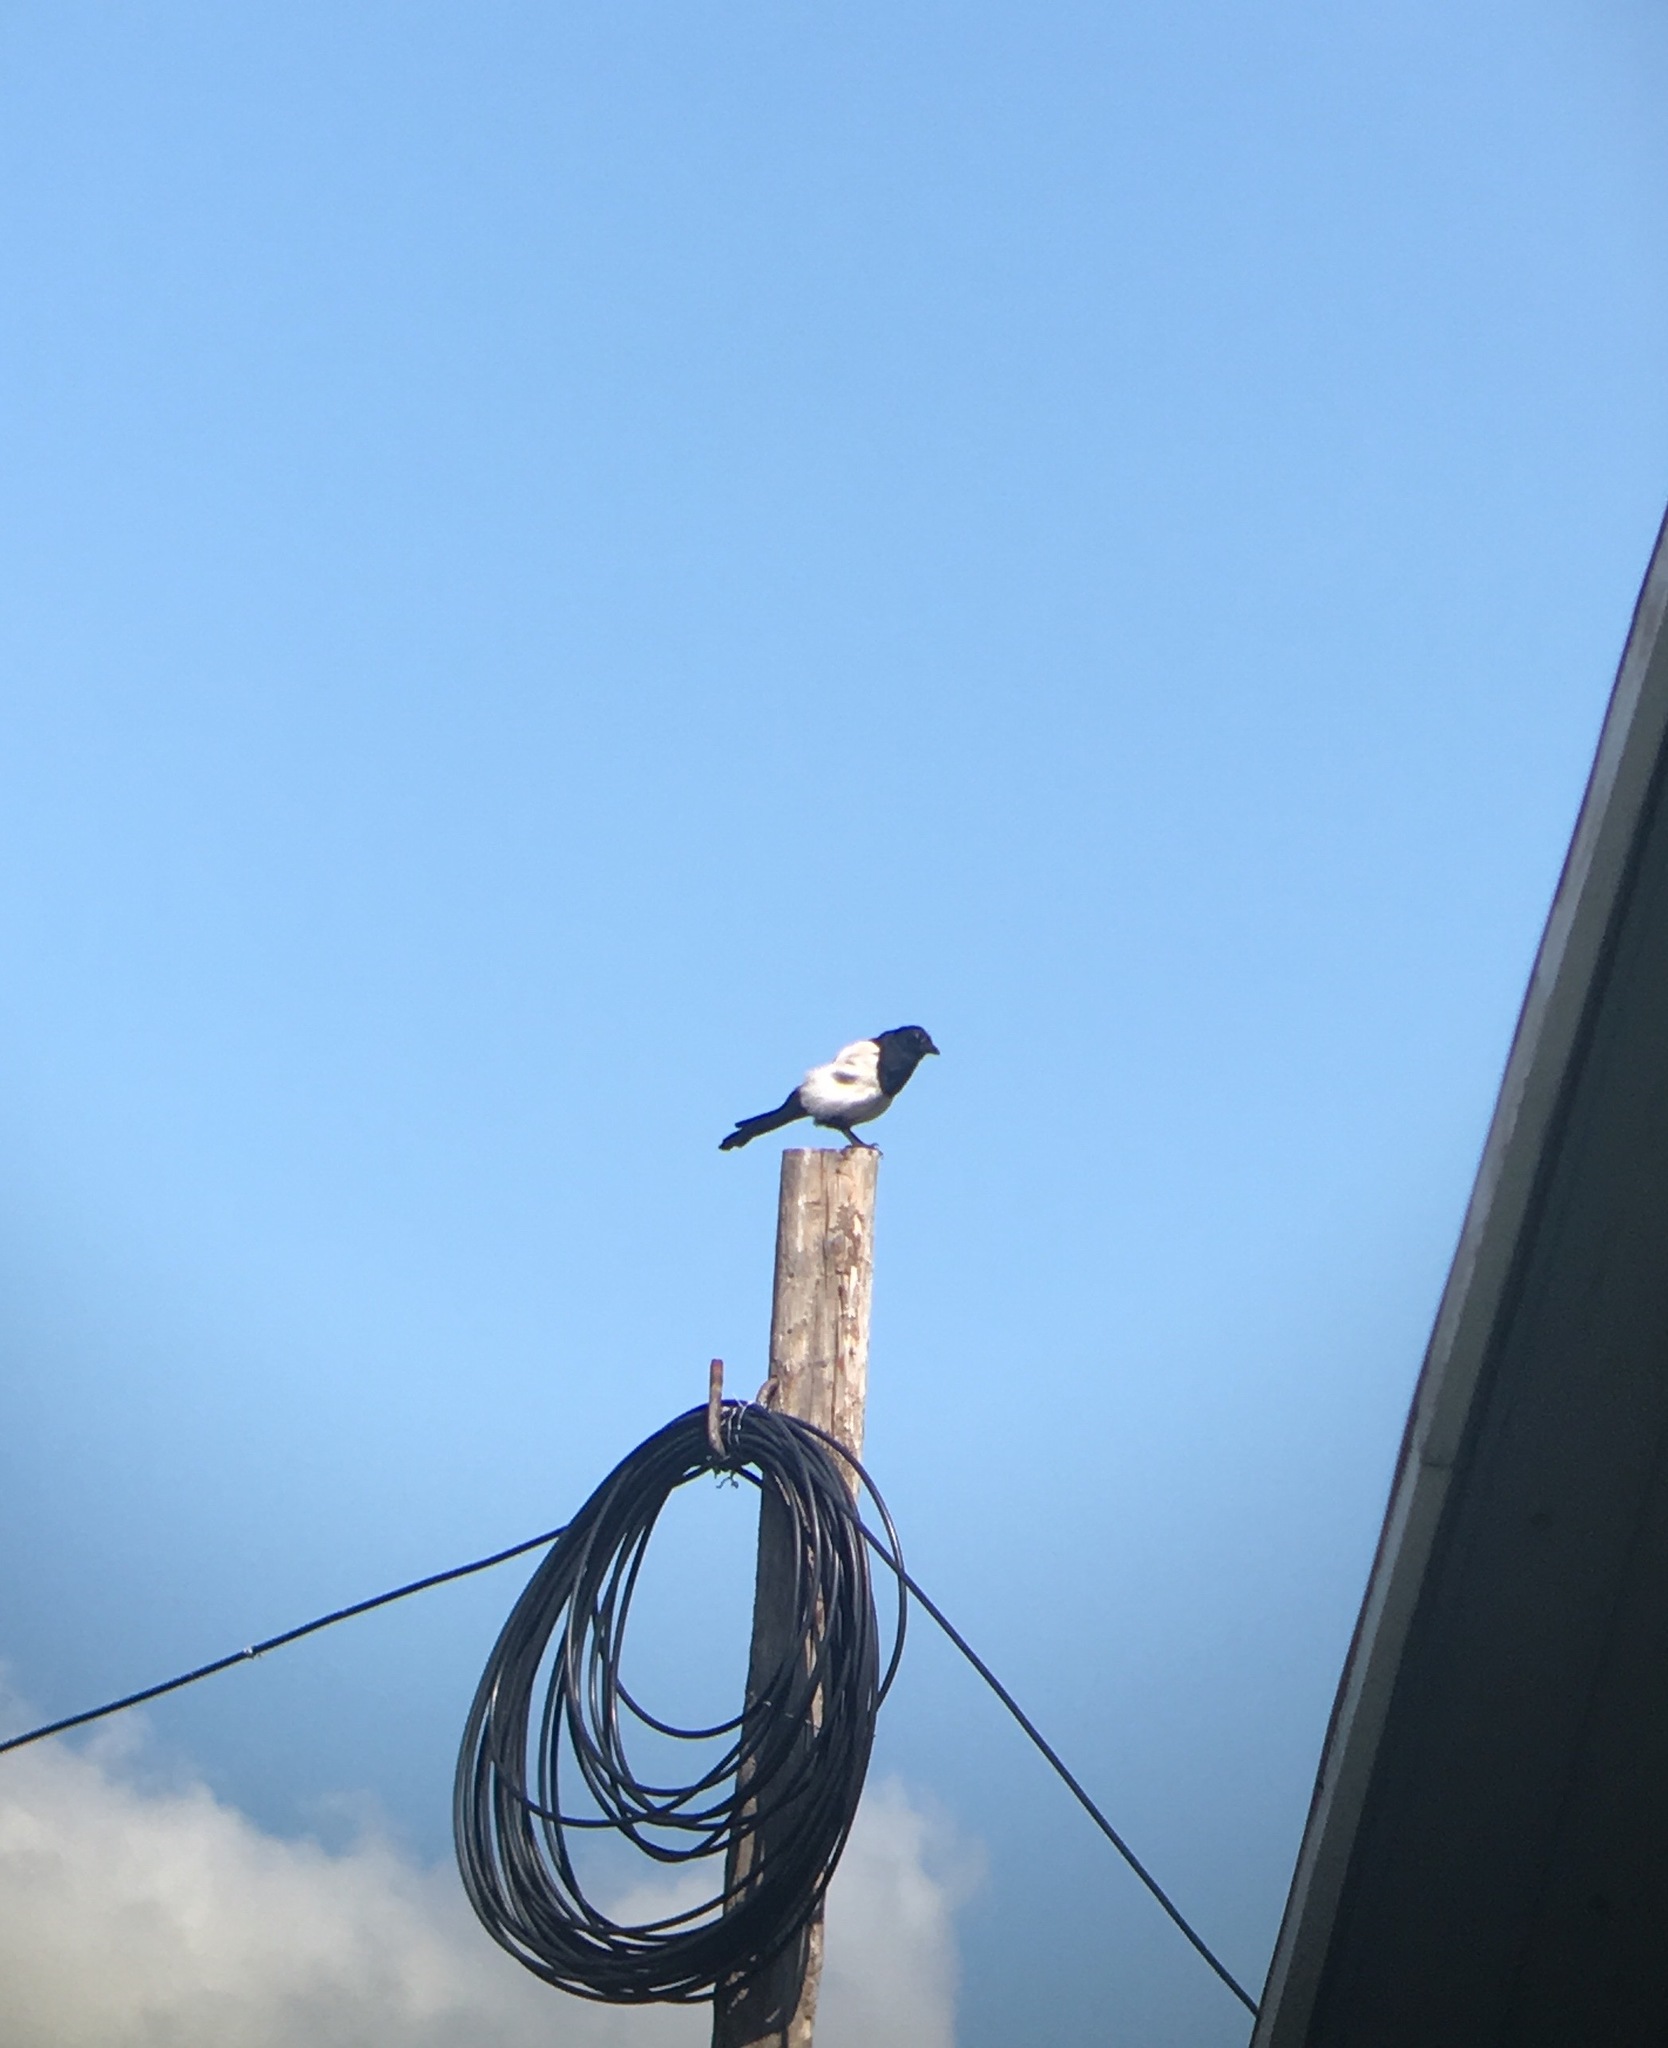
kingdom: Animalia
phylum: Chordata
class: Aves
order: Passeriformes
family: Corvidae
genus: Pica
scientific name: Pica pica
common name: Eurasian magpie
